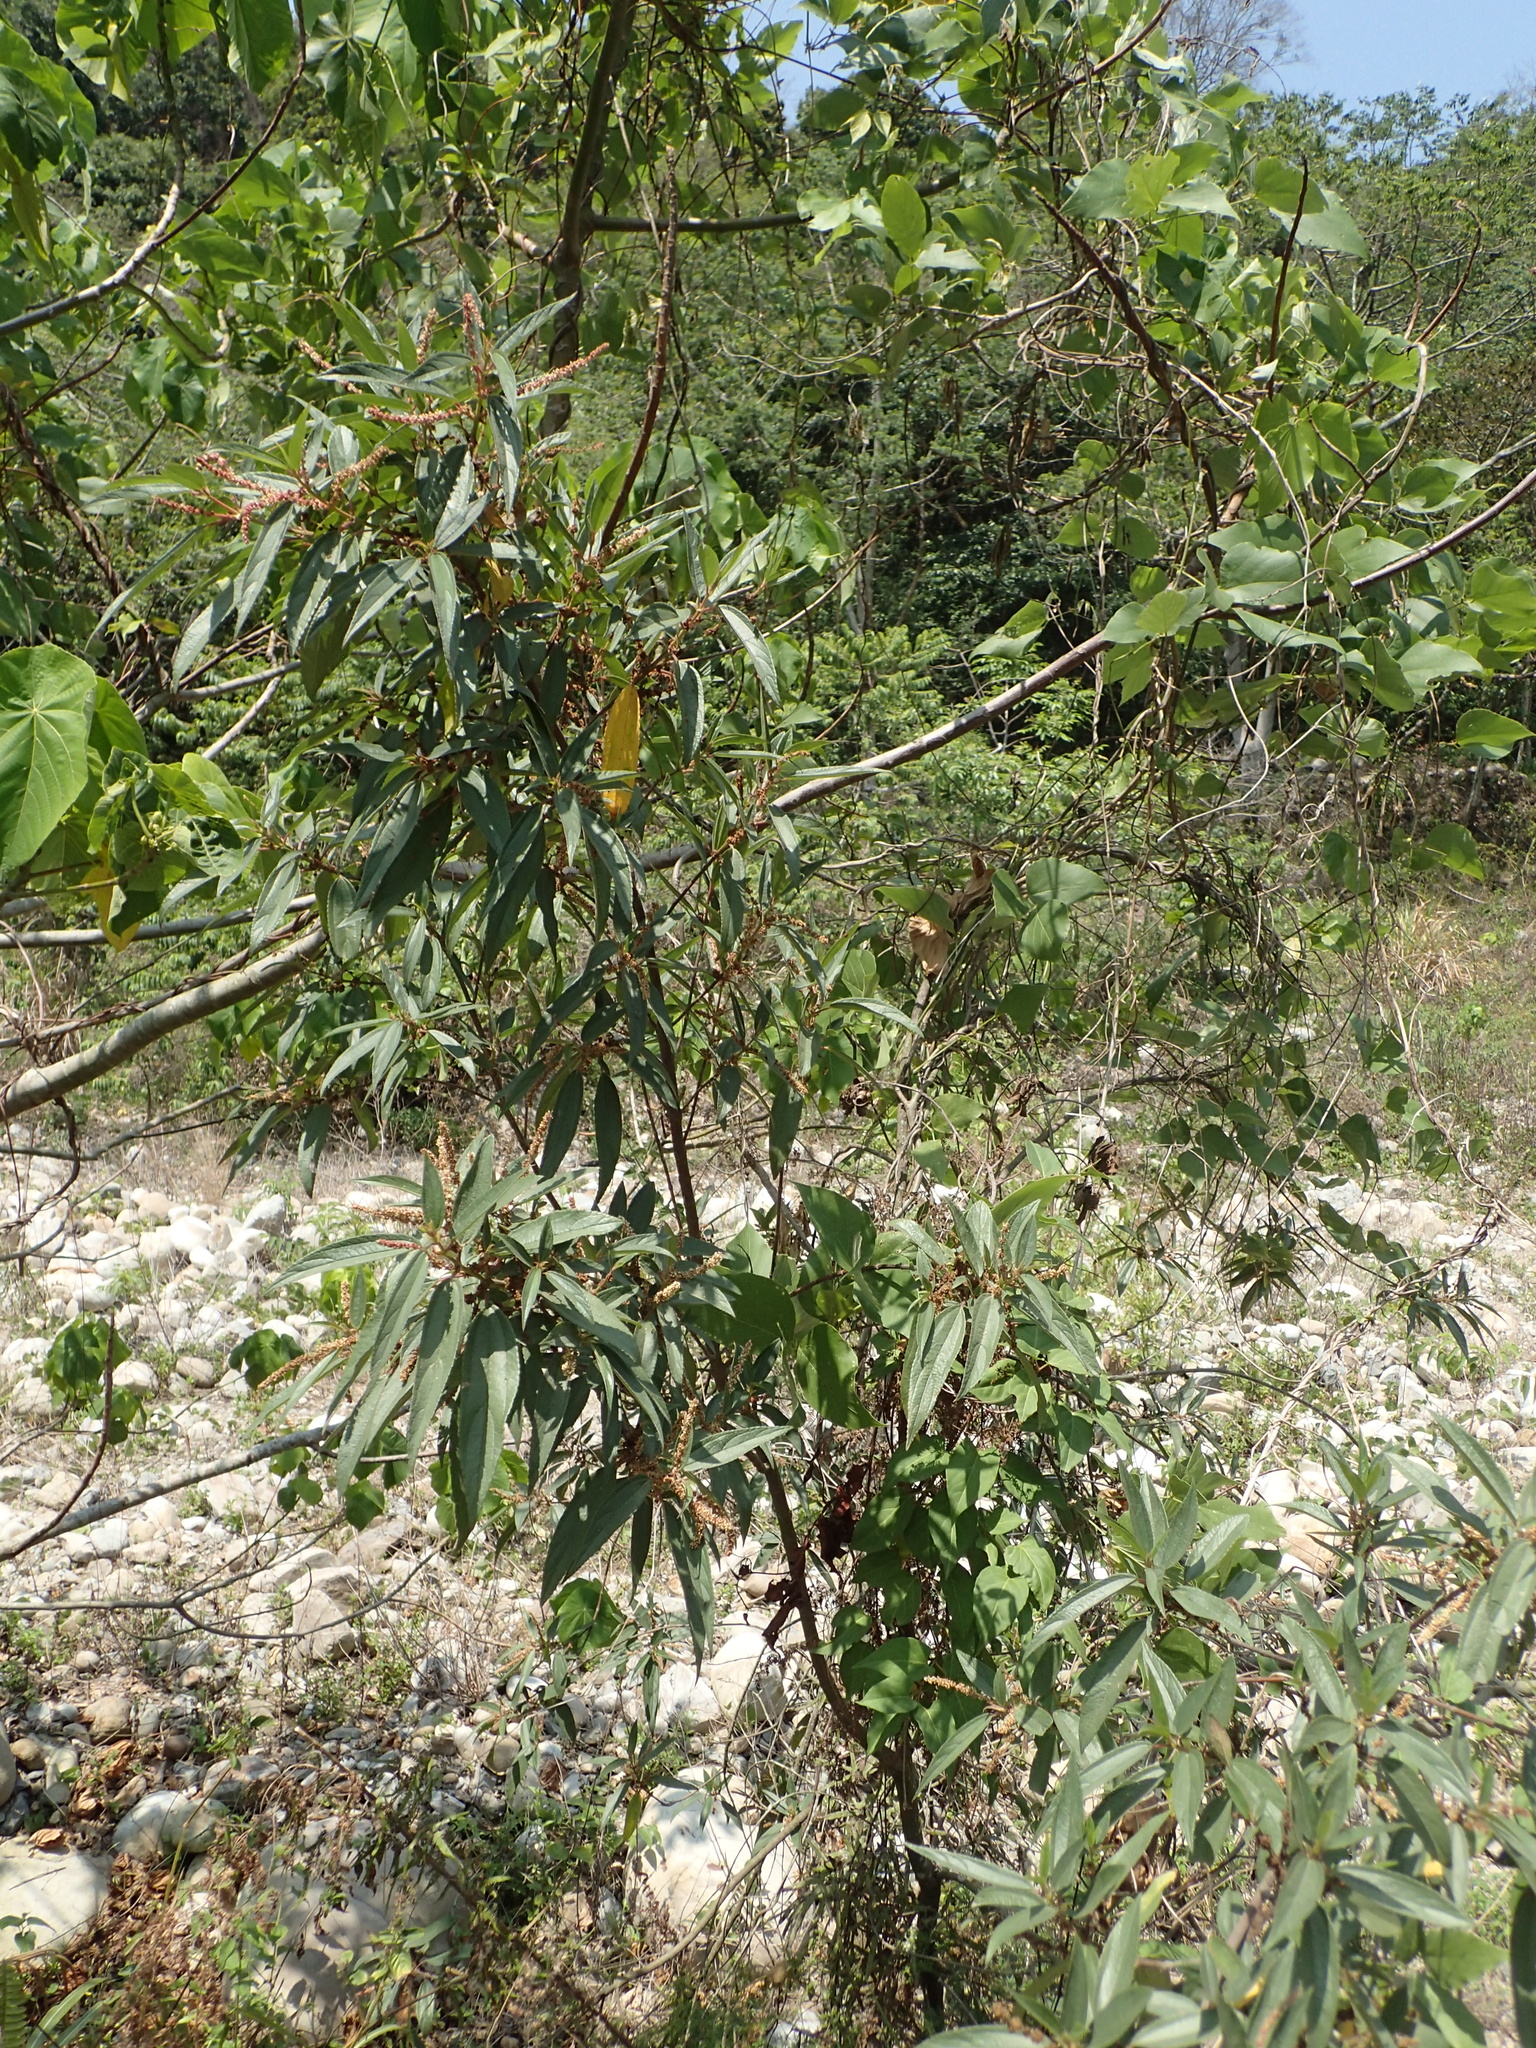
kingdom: Plantae
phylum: Tracheophyta
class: Magnoliopsida
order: Rosales
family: Urticaceae
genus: Boehmeria
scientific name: Boehmeria densiflora
